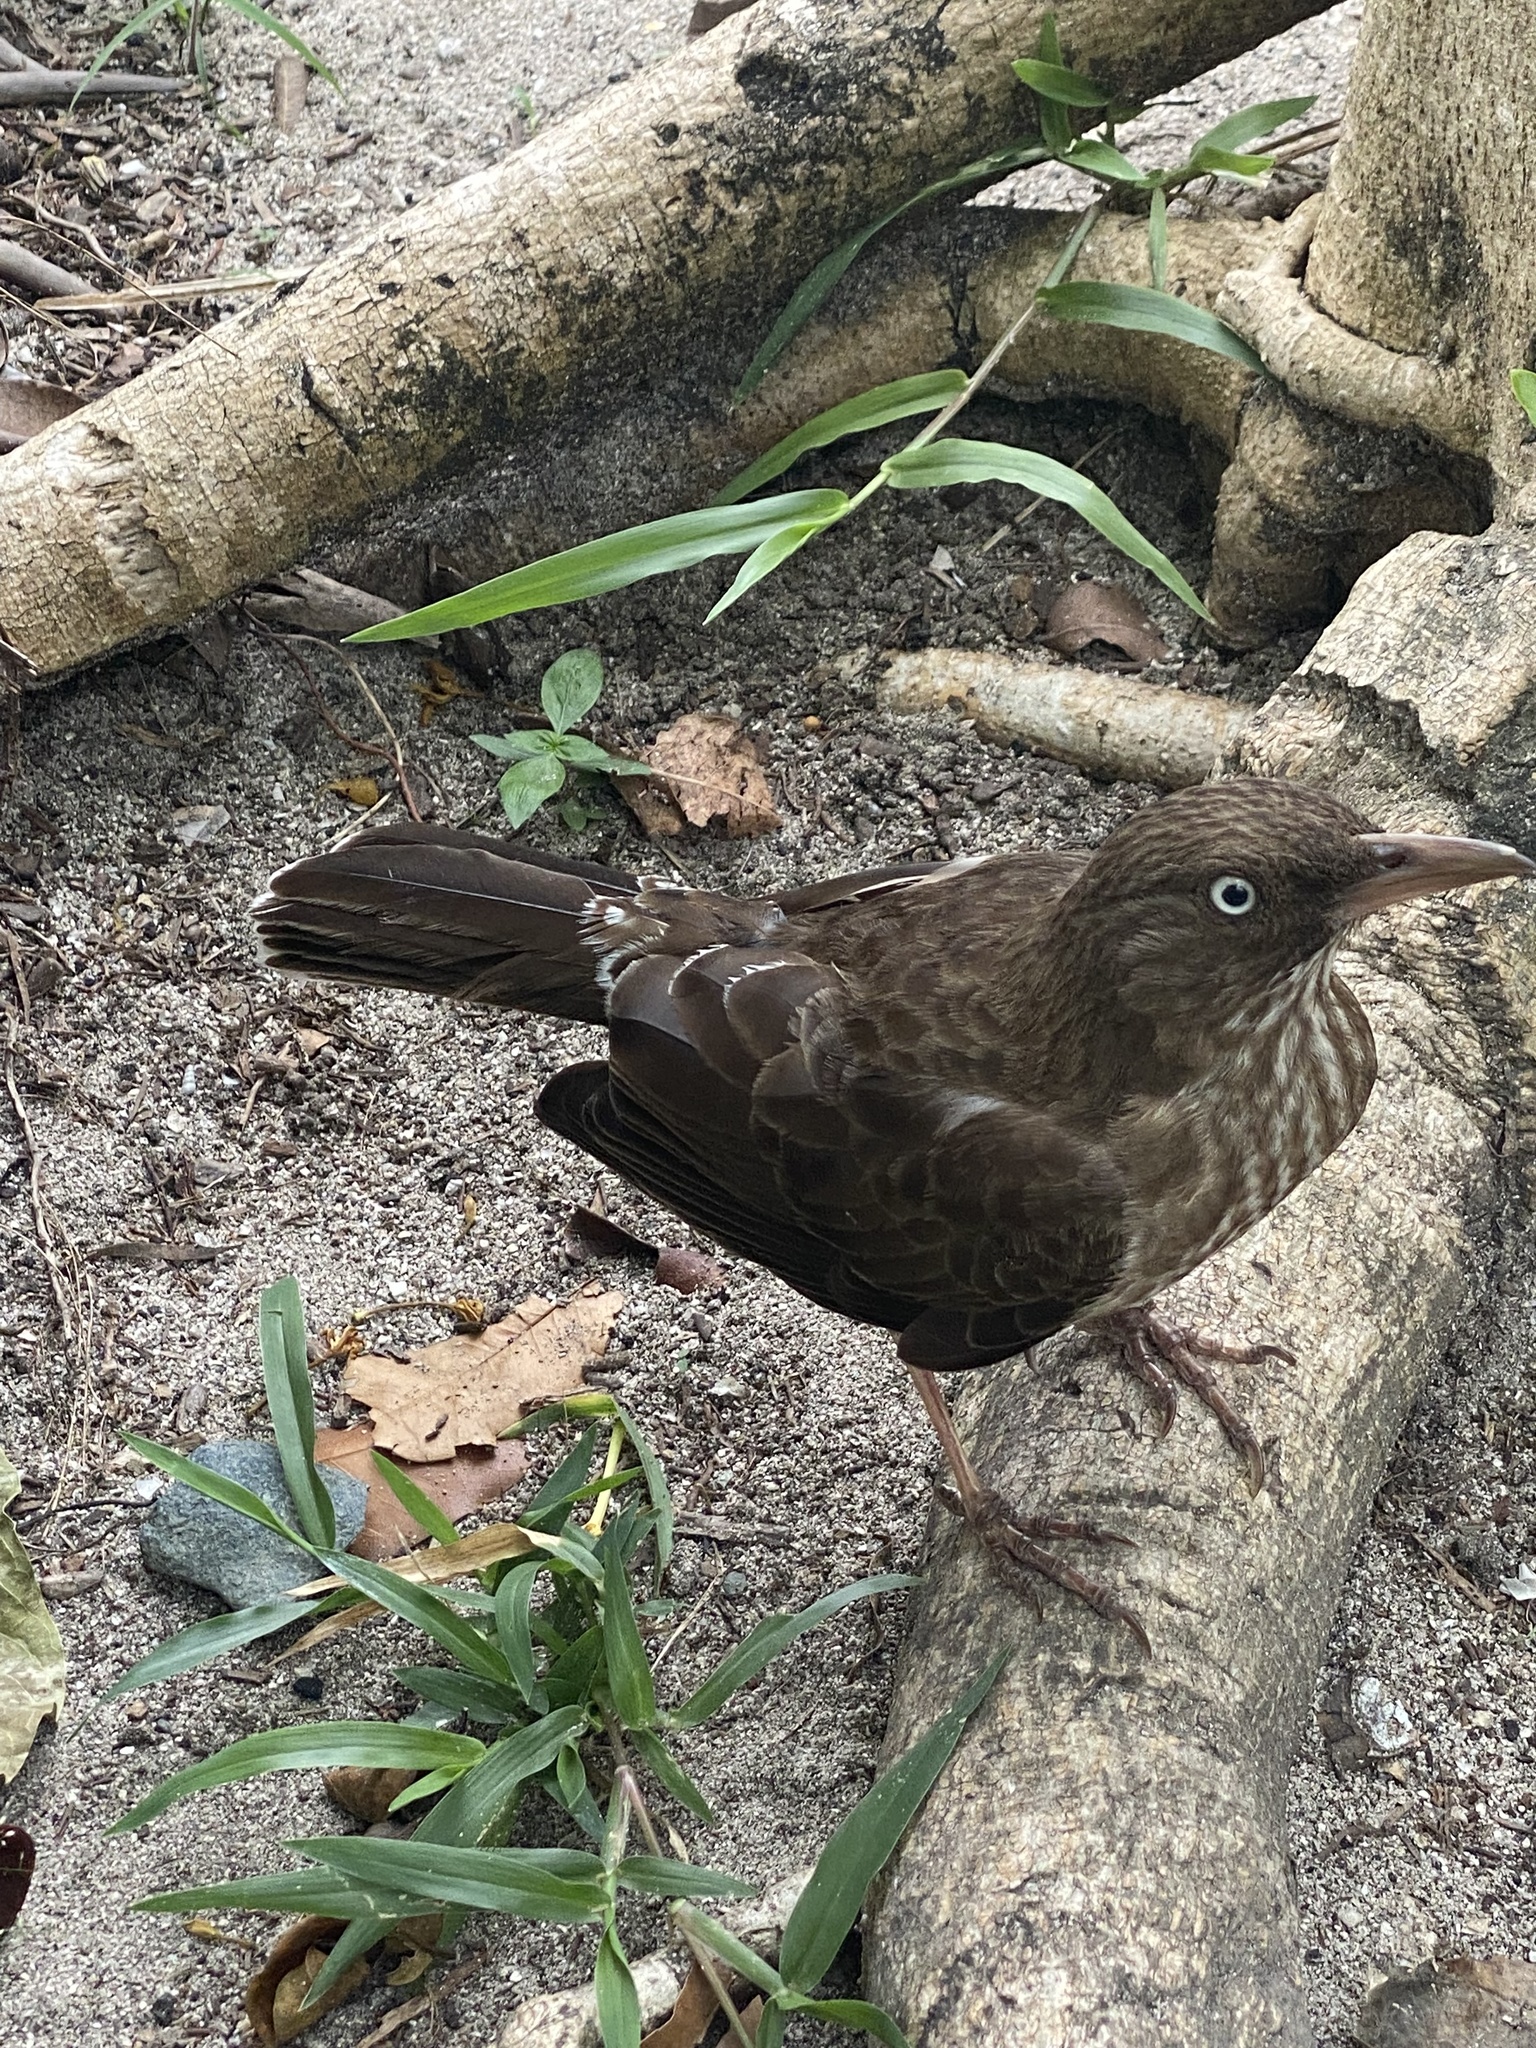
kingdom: Animalia
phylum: Chordata
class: Aves
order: Passeriformes
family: Mimidae
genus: Margarops
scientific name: Margarops fuscatus
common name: Pearly-eyed thrasher
